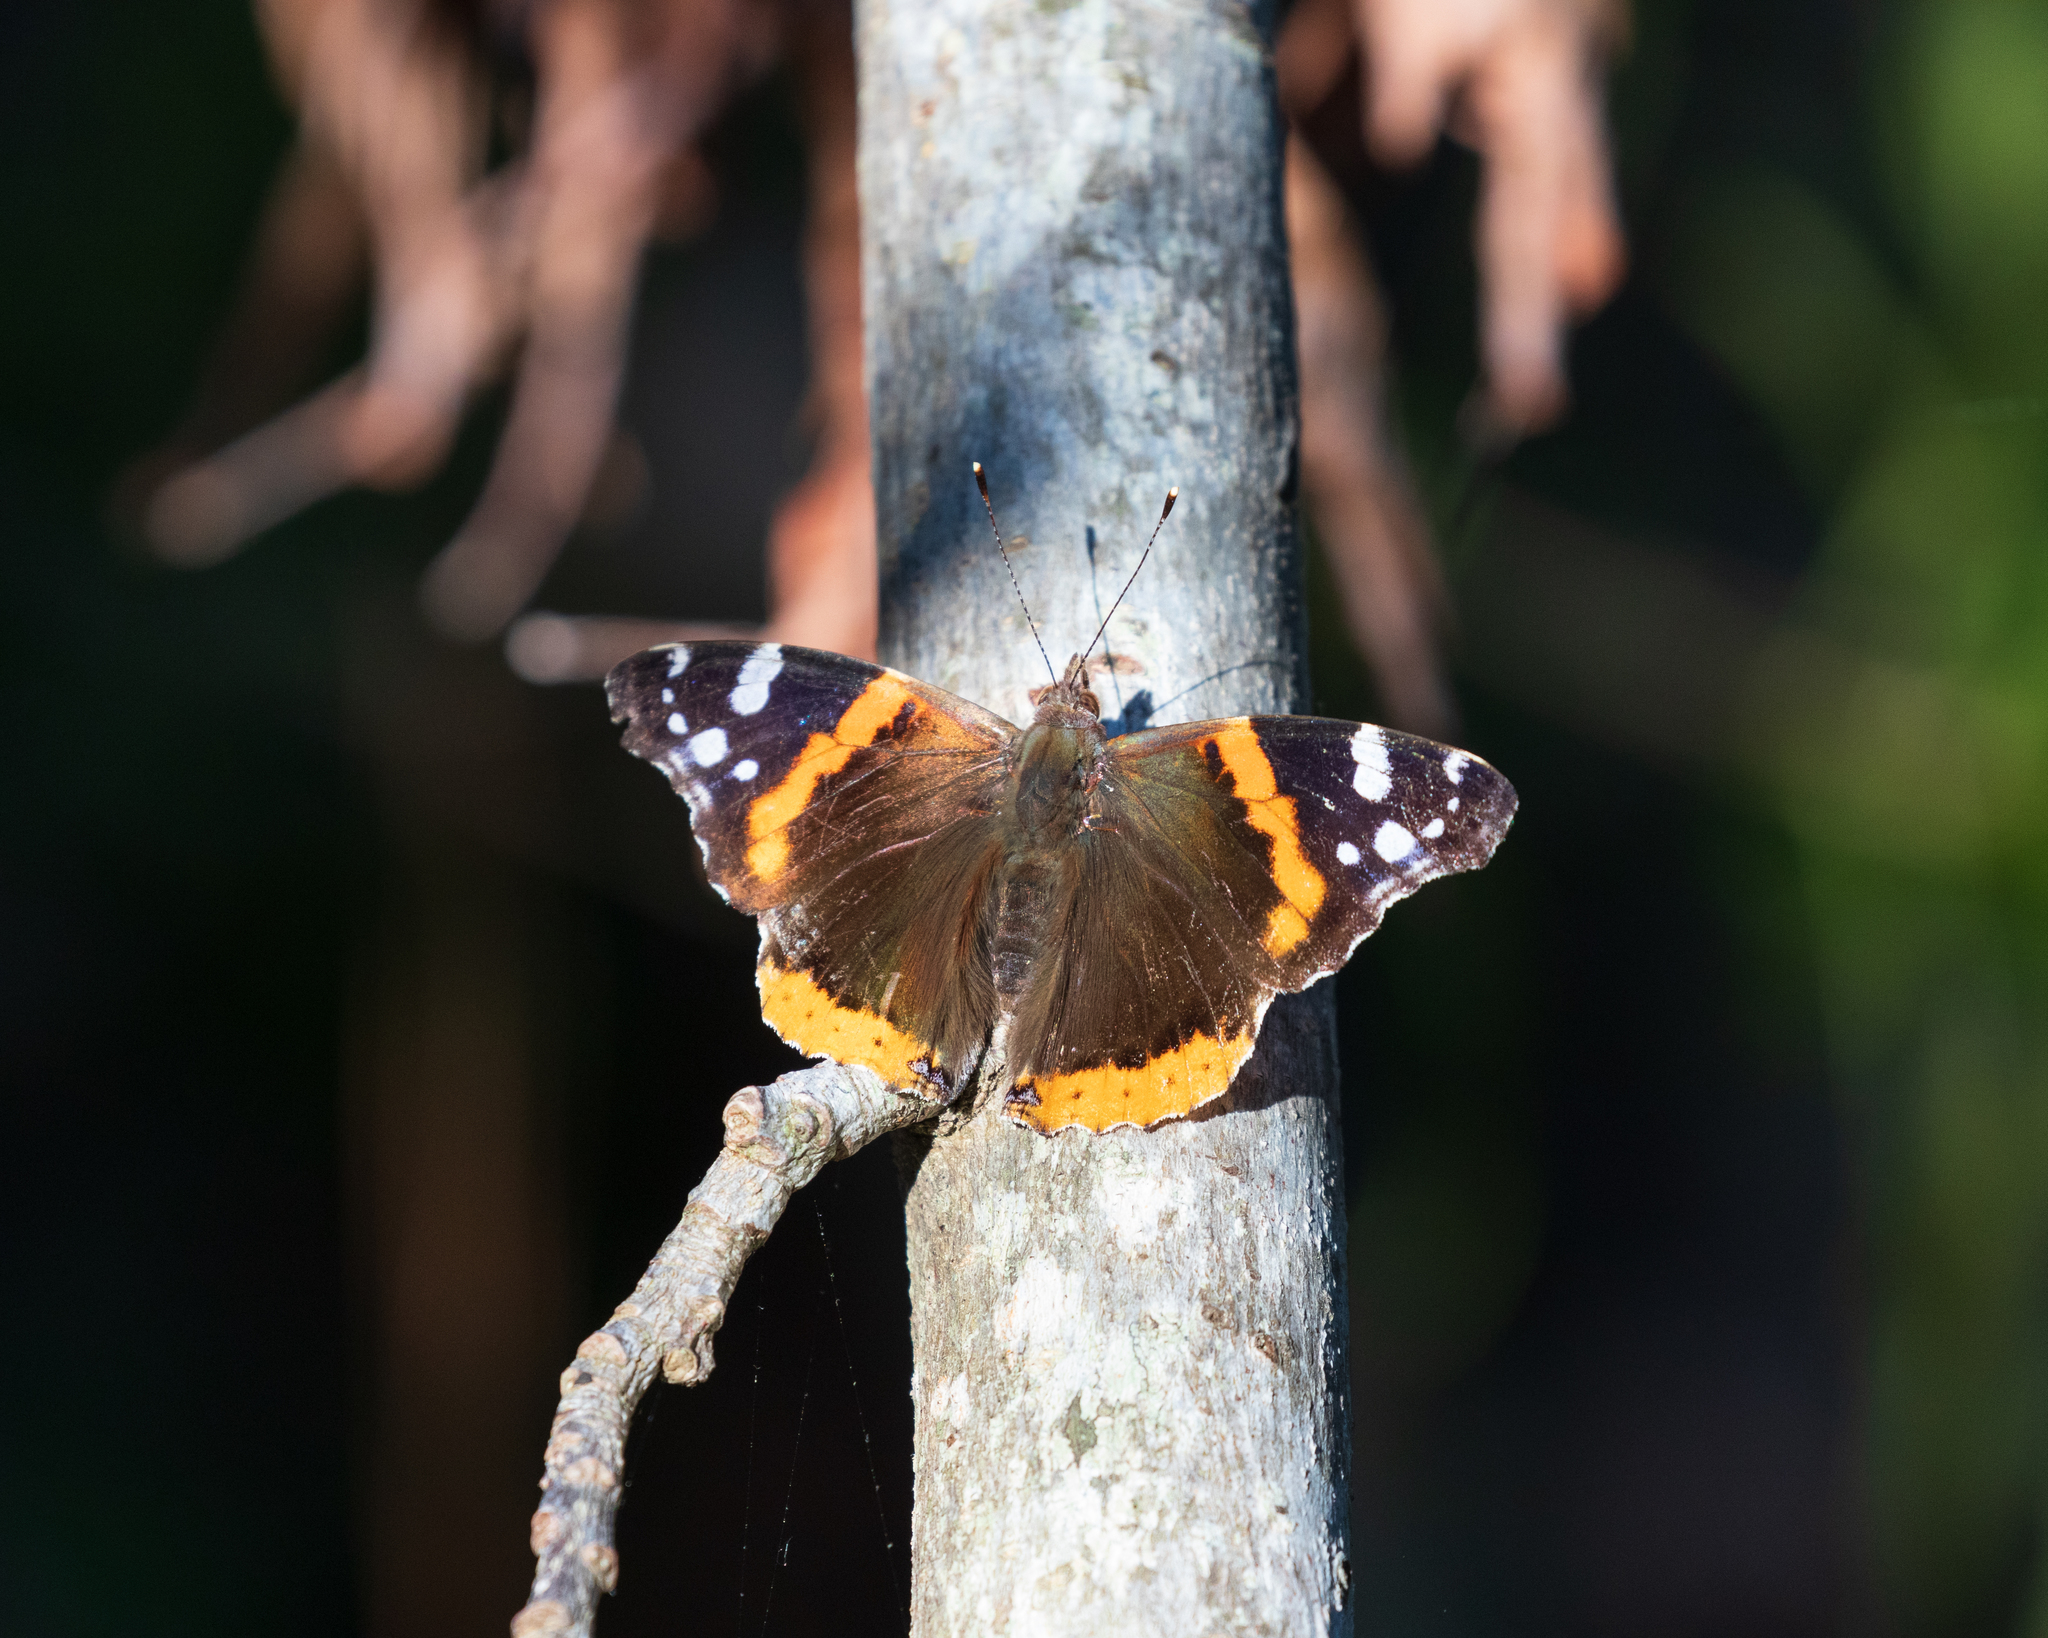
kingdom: Animalia
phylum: Arthropoda
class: Insecta
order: Lepidoptera
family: Nymphalidae
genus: Vanessa
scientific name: Vanessa atalanta
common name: Red admiral
